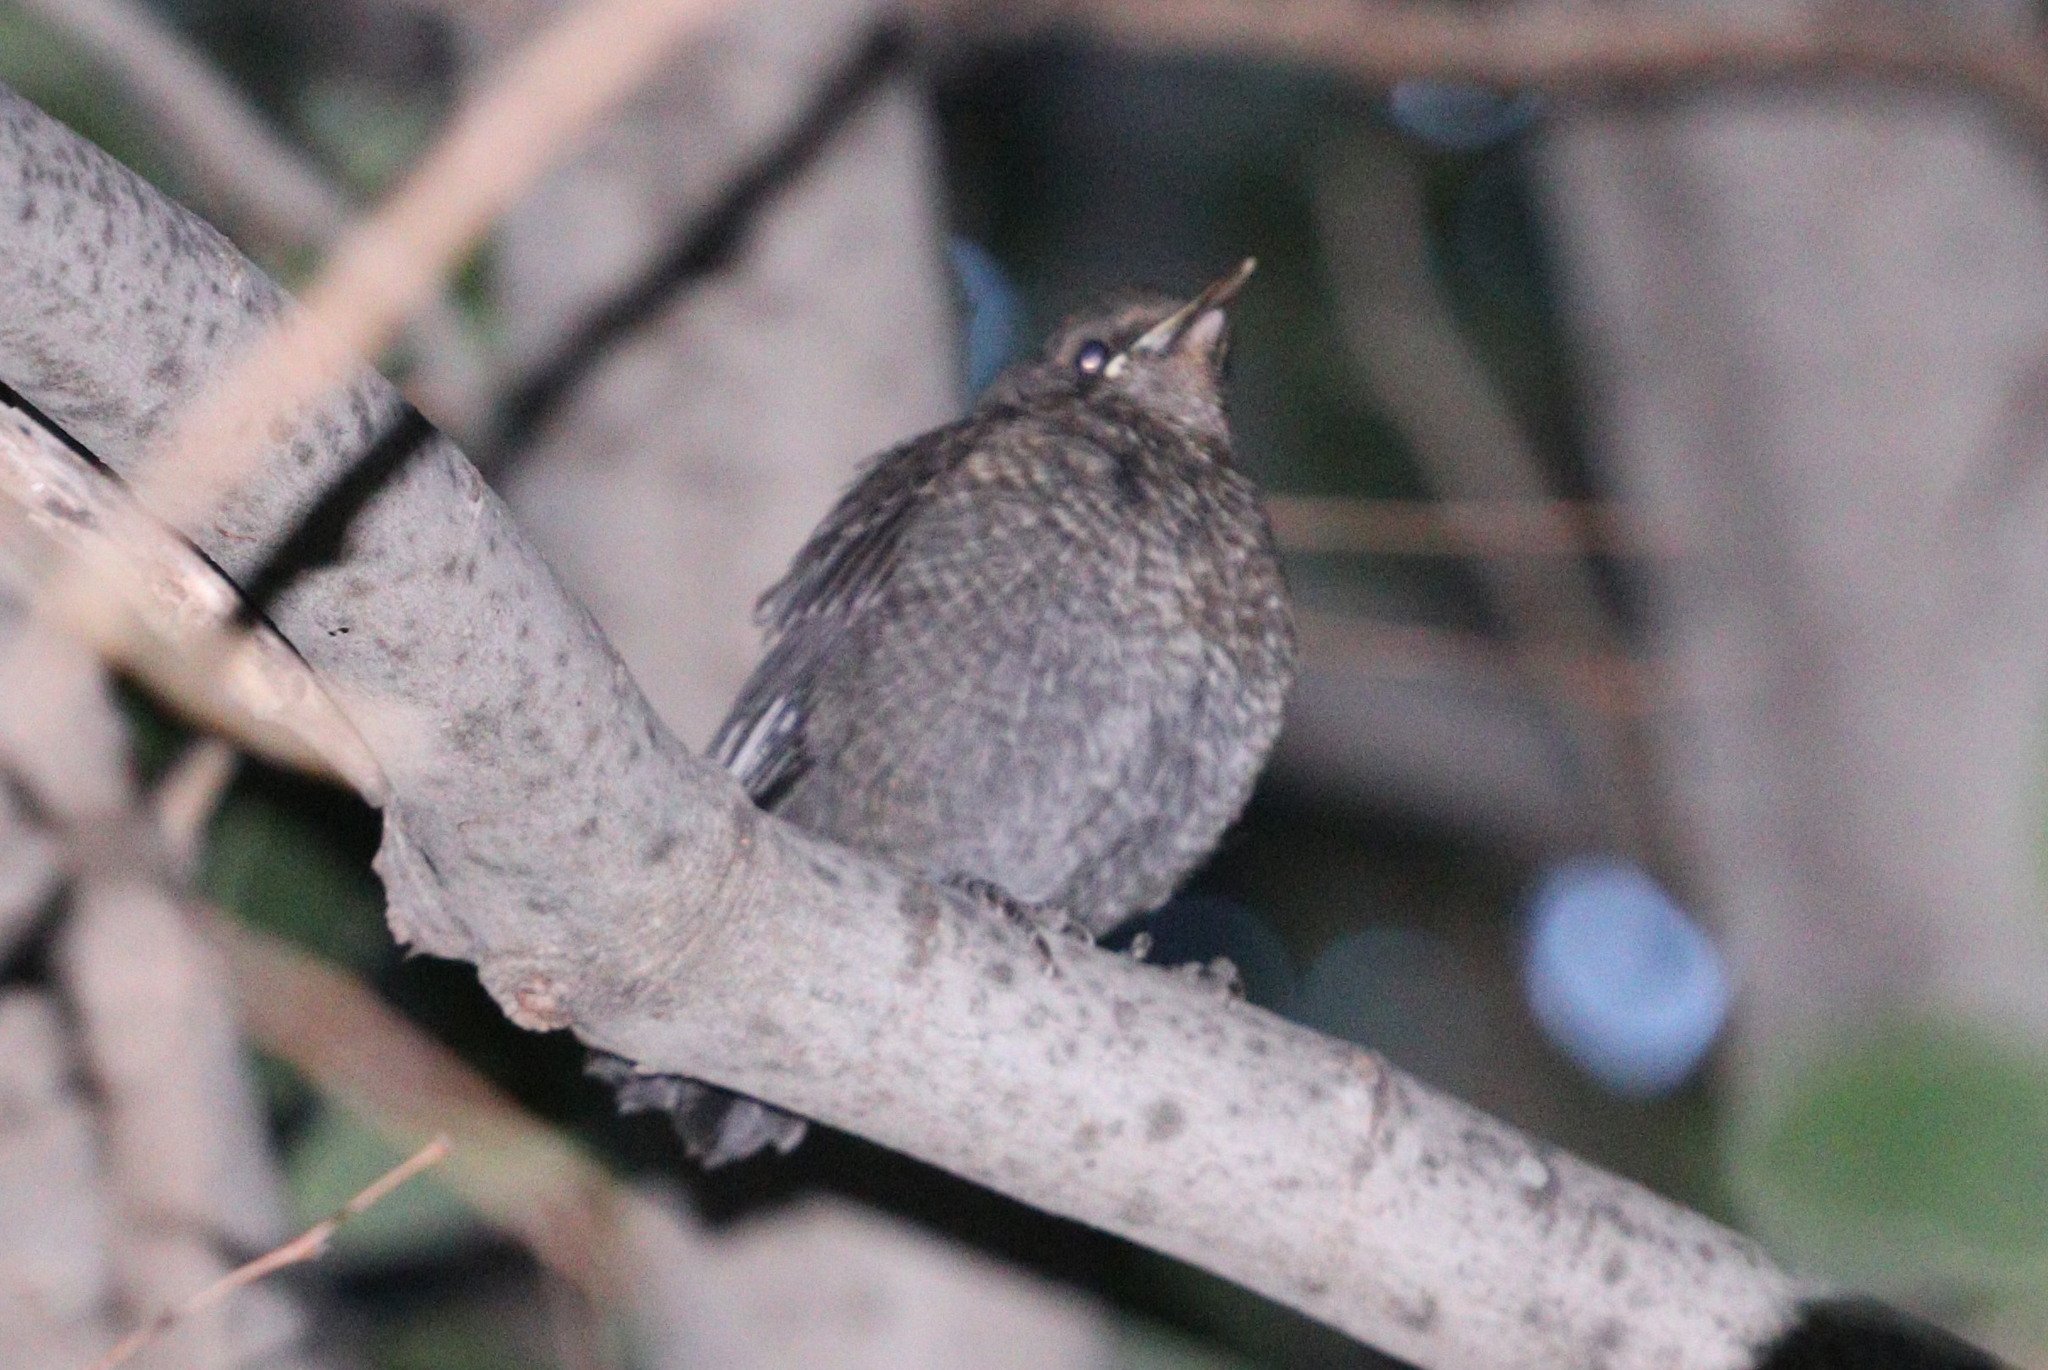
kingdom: Animalia
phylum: Chordata
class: Aves
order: Passeriformes
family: Turdidae
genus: Turdus
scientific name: Turdus merula
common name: Common blackbird
